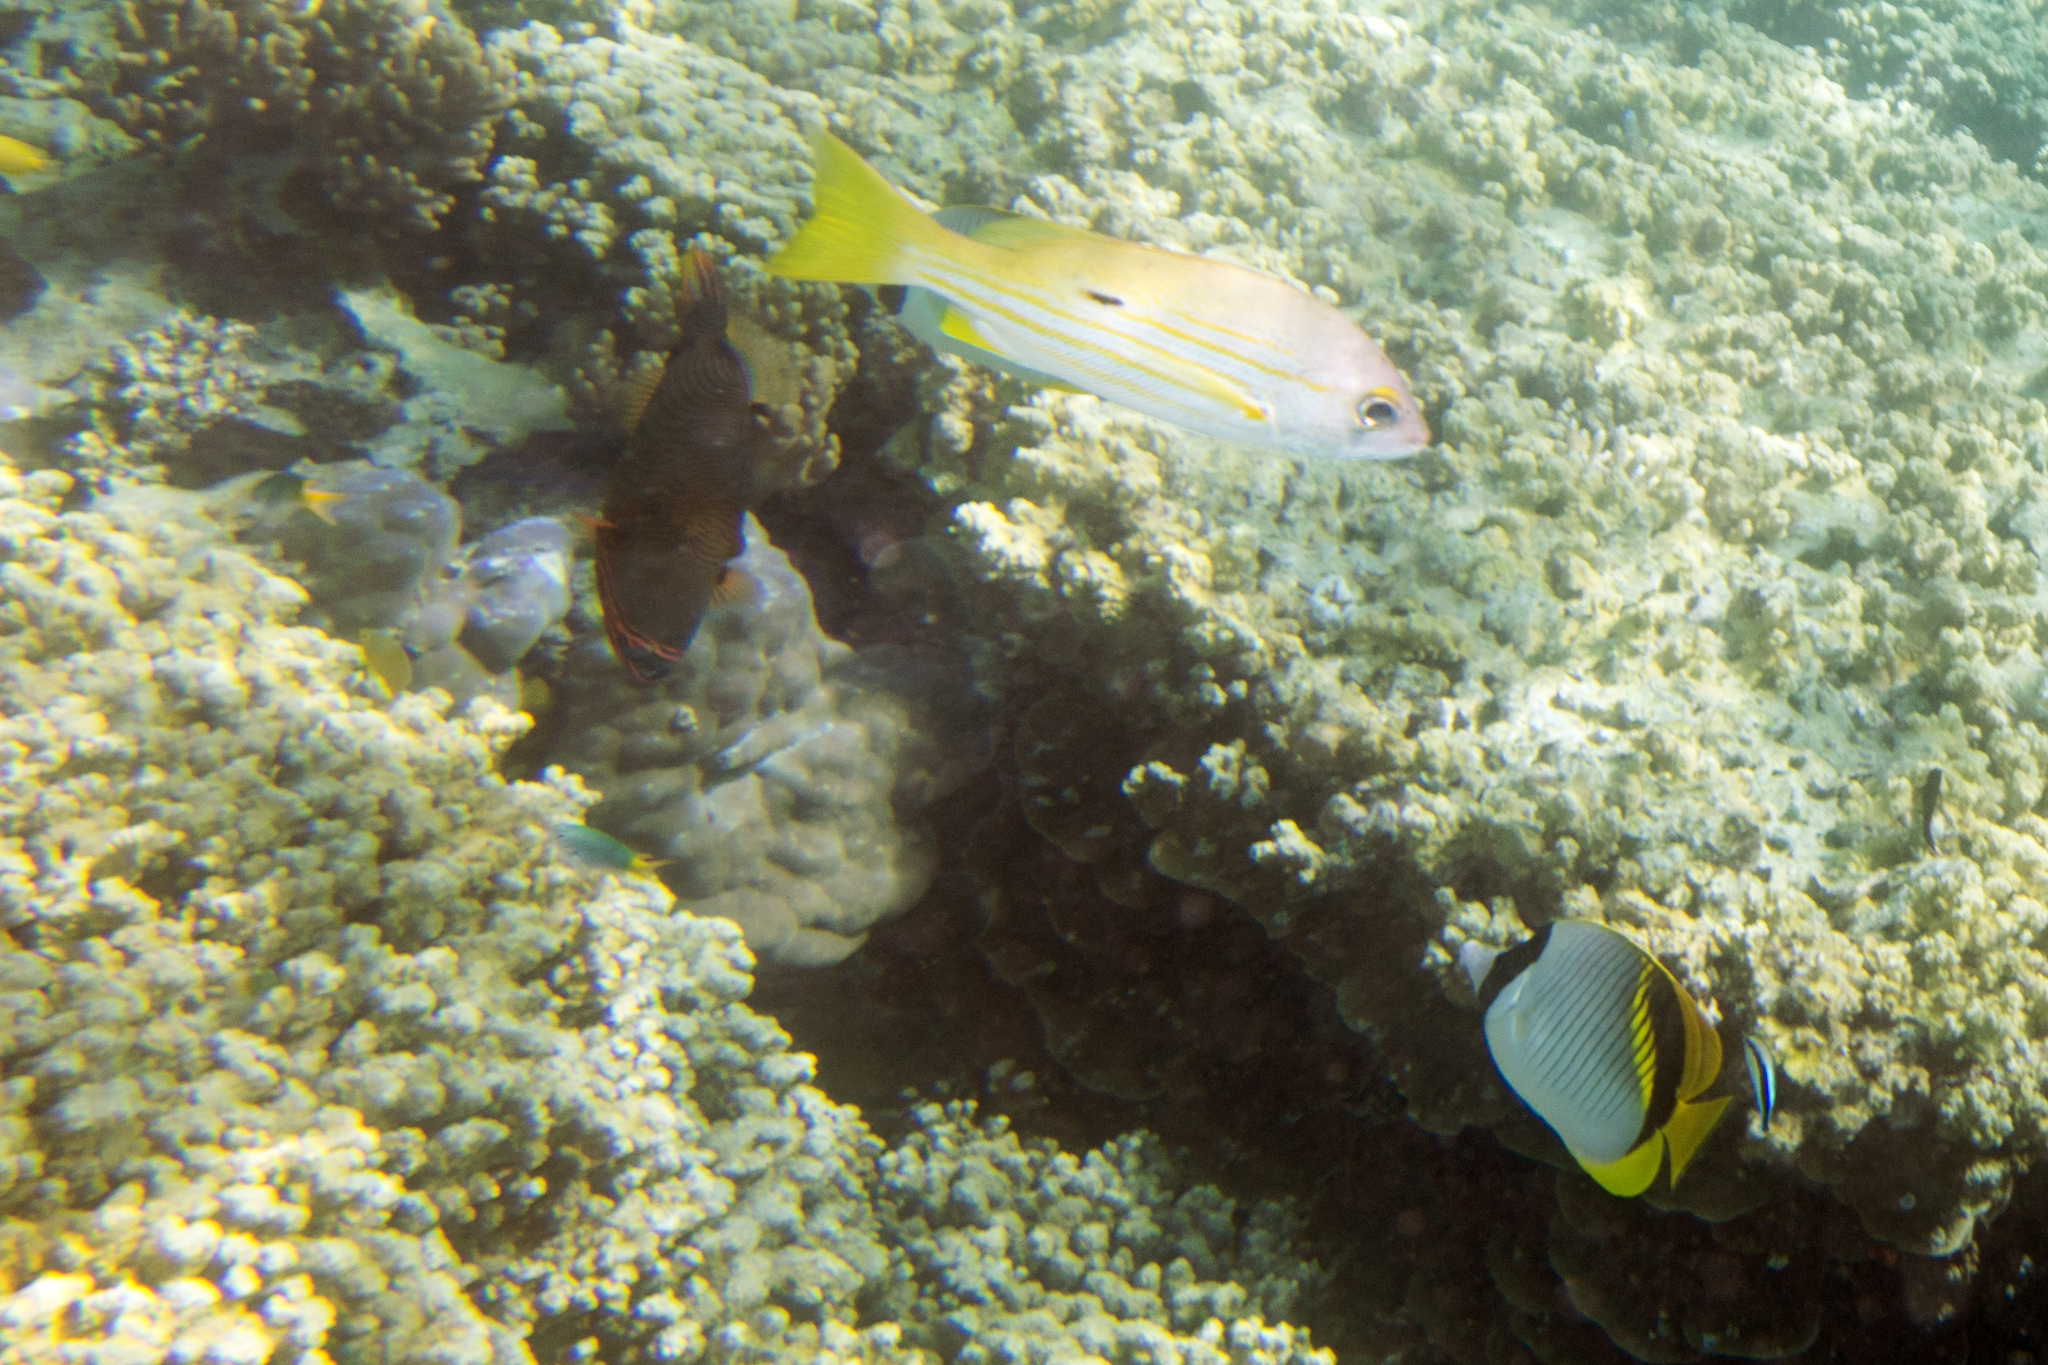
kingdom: Animalia
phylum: Chordata
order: Perciformes
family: Lutjanidae
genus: Lutjanus
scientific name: Lutjanus fulviflamma
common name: Blackspot snapper
